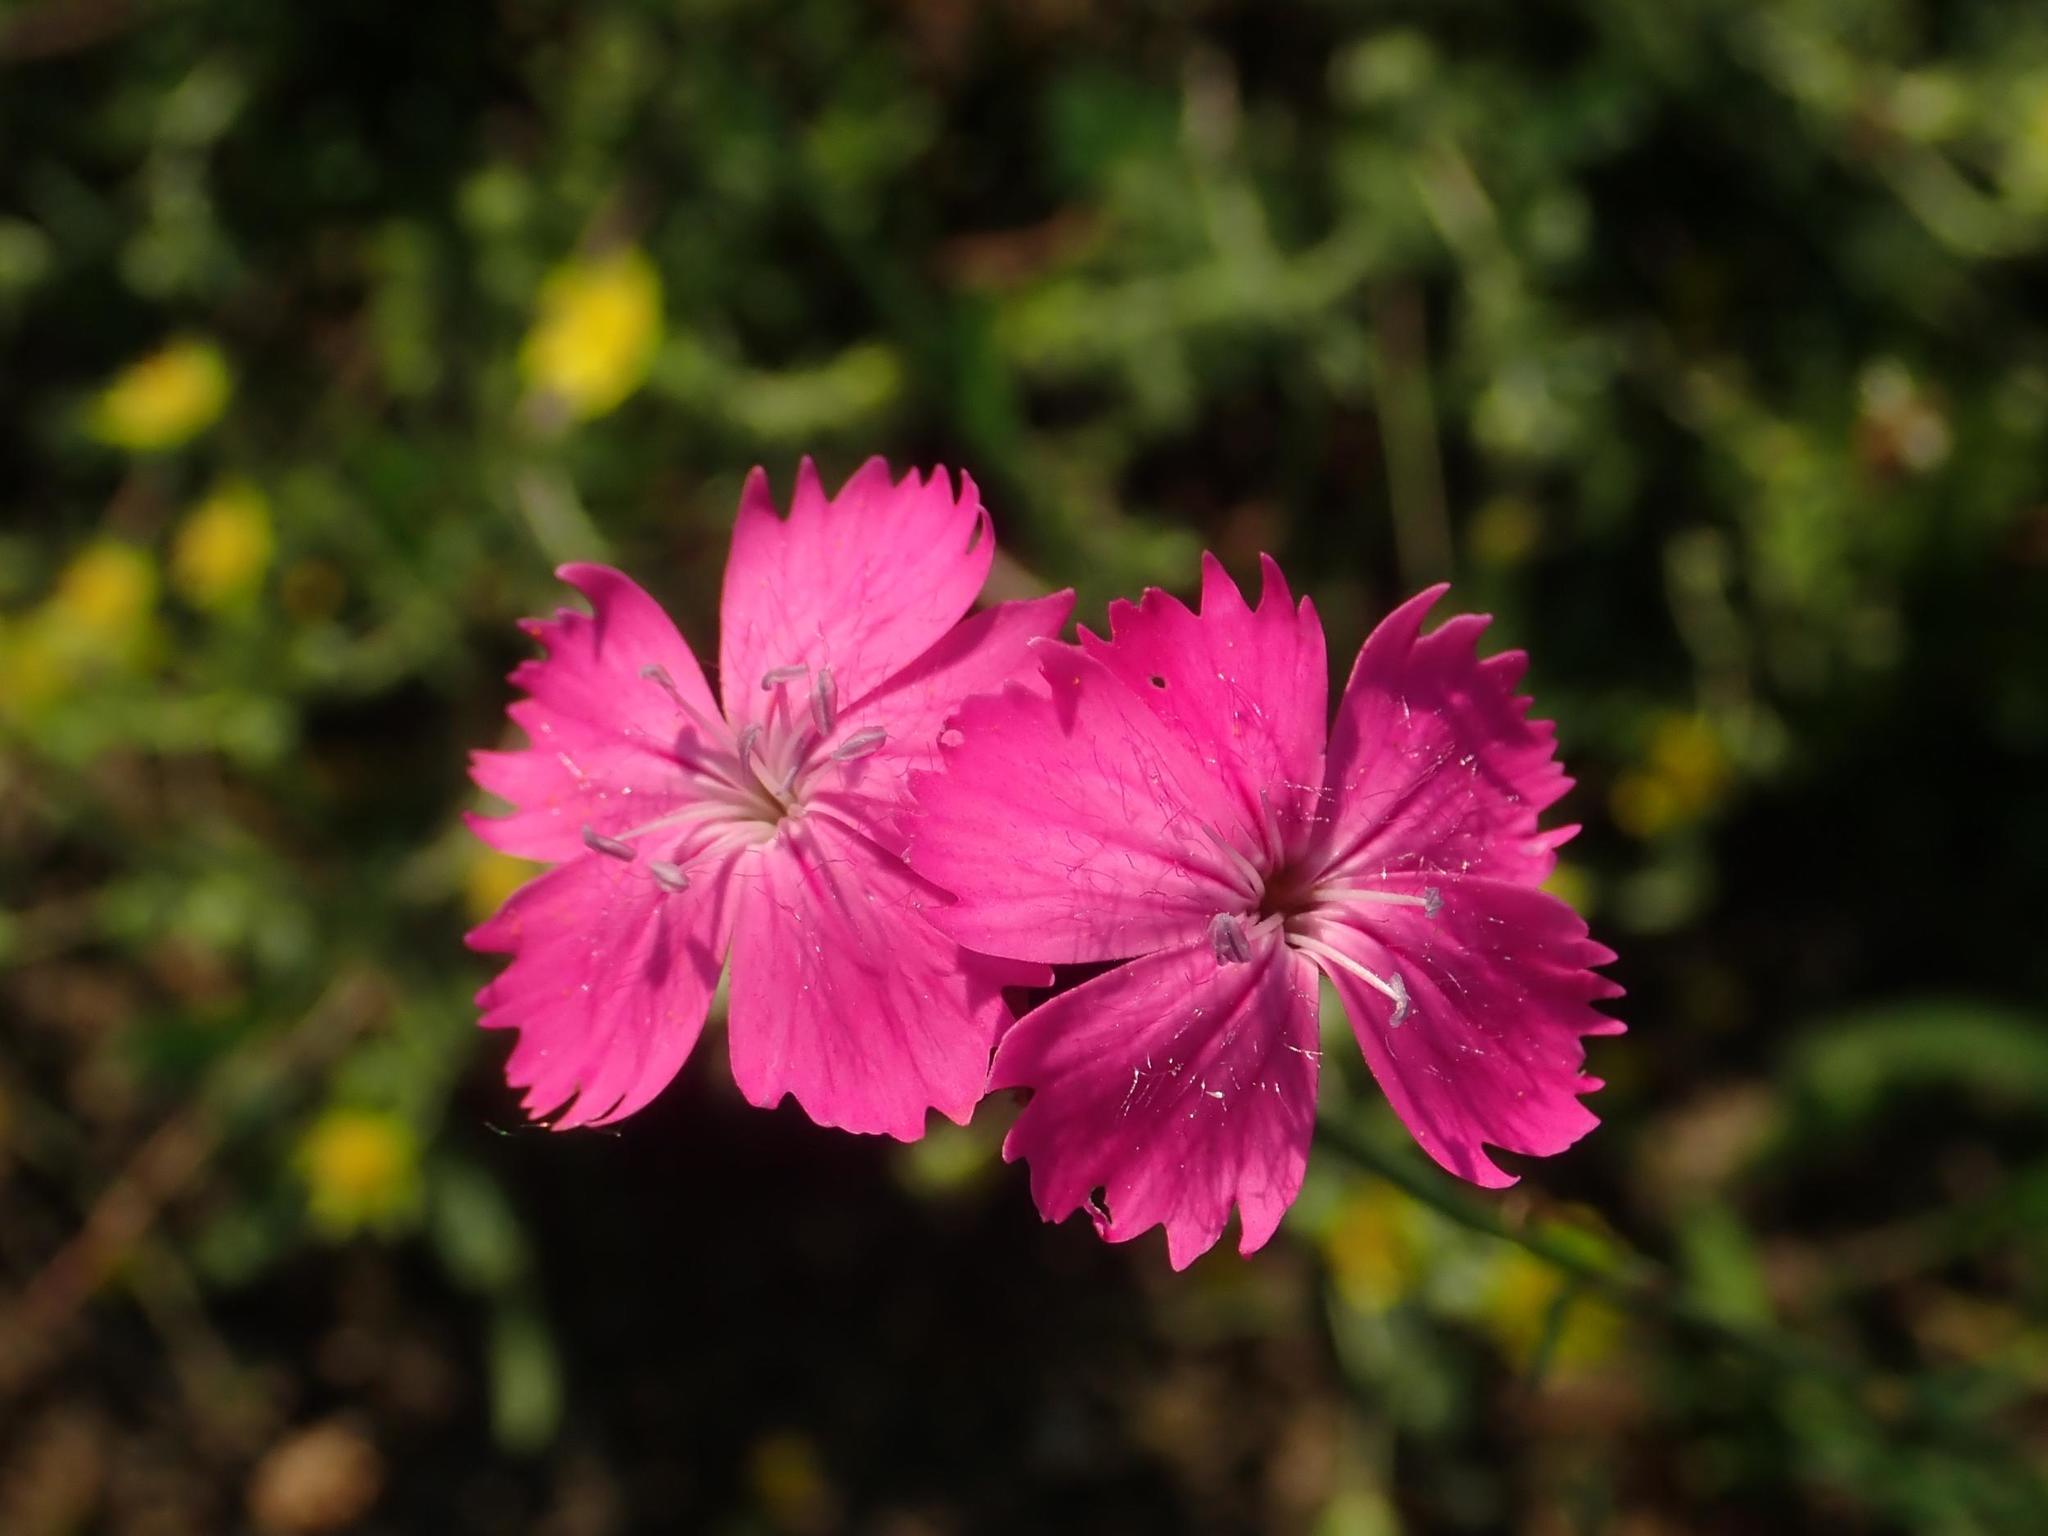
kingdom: Plantae
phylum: Tracheophyta
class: Magnoliopsida
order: Caryophyllales
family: Caryophyllaceae
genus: Dianthus
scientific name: Dianthus carthusianorum
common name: Carthusian pink
